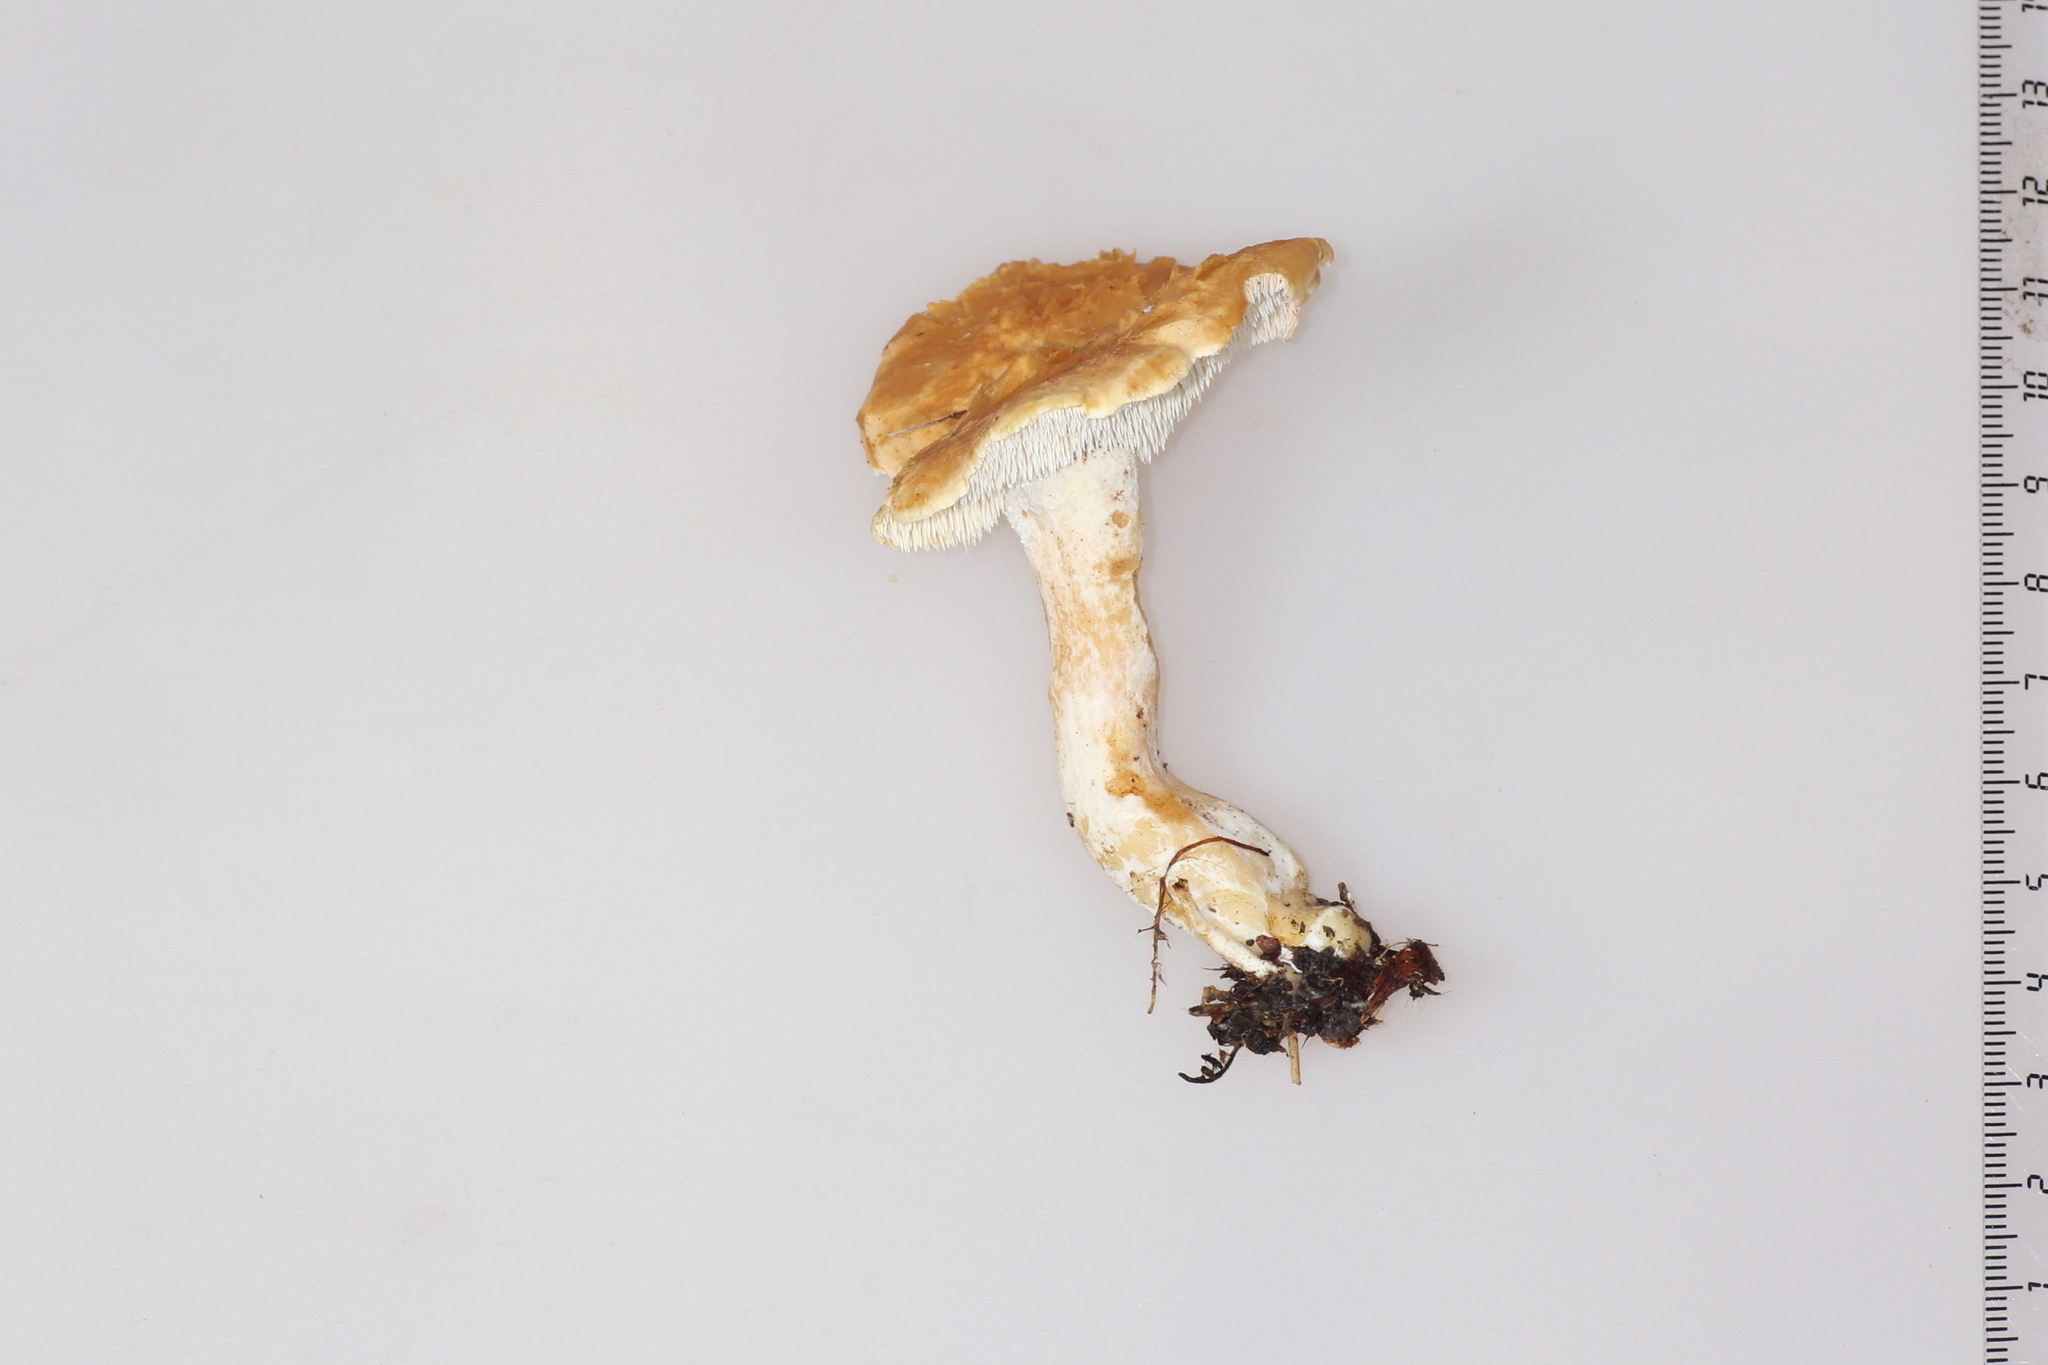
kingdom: Fungi
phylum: Basidiomycota
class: Agaricomycetes
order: Cantharellales
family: Hydnaceae
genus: Hydnum
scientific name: Hydnum rufescens
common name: Terracotta hedgehog
